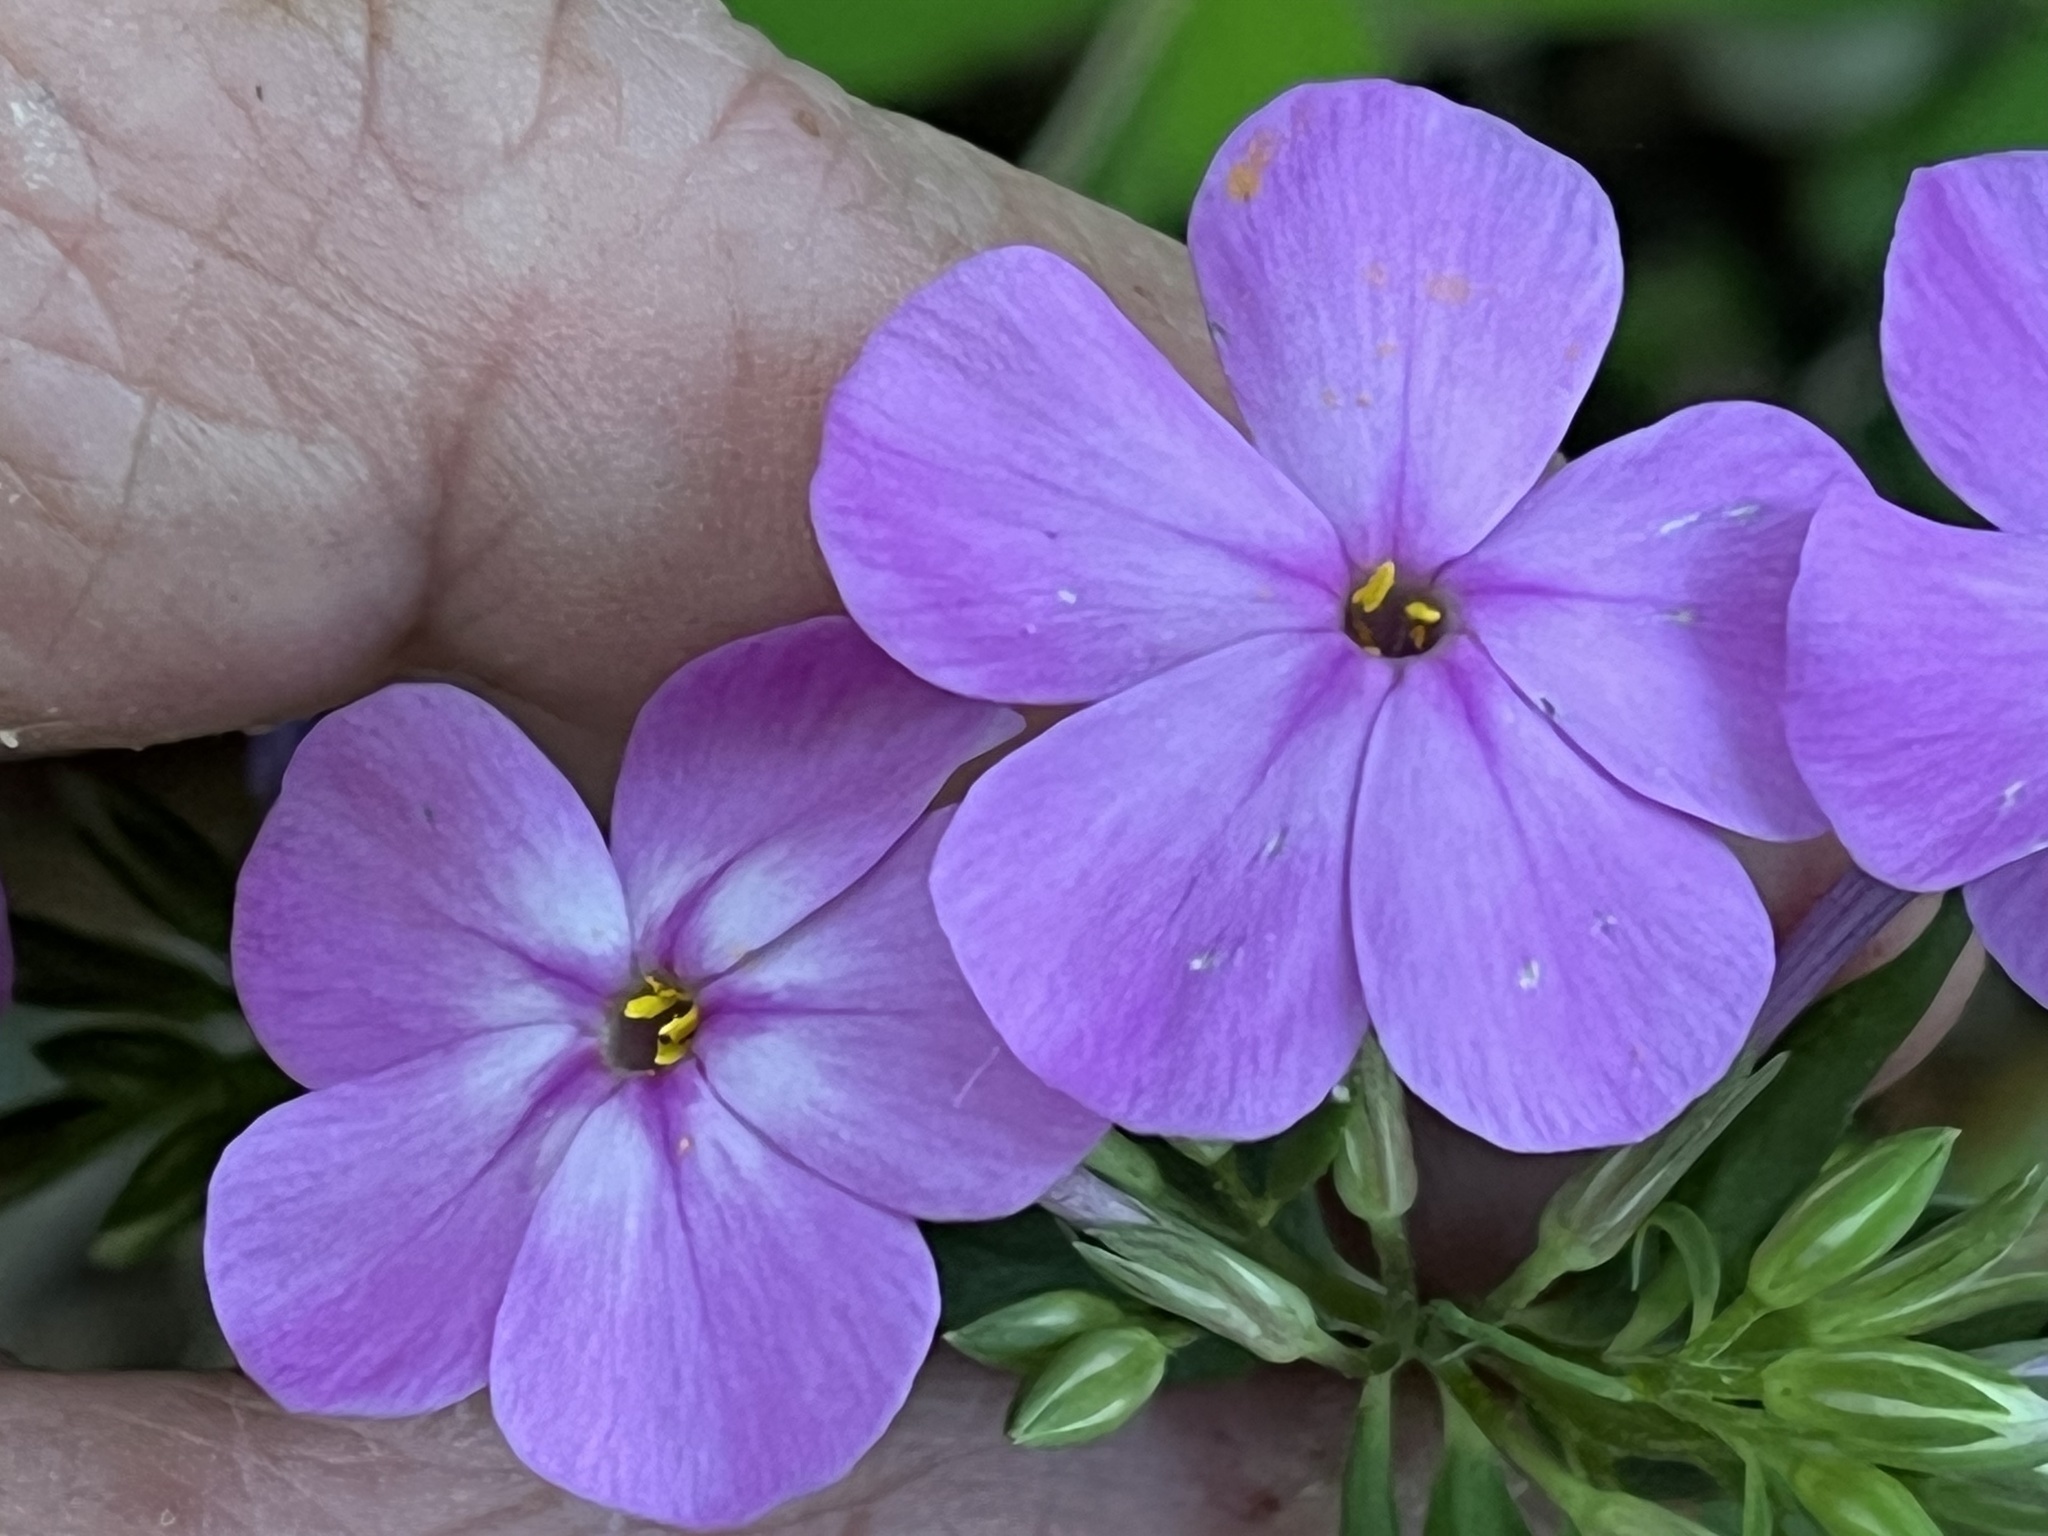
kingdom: Plantae
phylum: Tracheophyta
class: Magnoliopsida
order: Ericales
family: Polemoniaceae
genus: Phlox
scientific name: Phlox carolina
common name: Thick-leaf phlox
